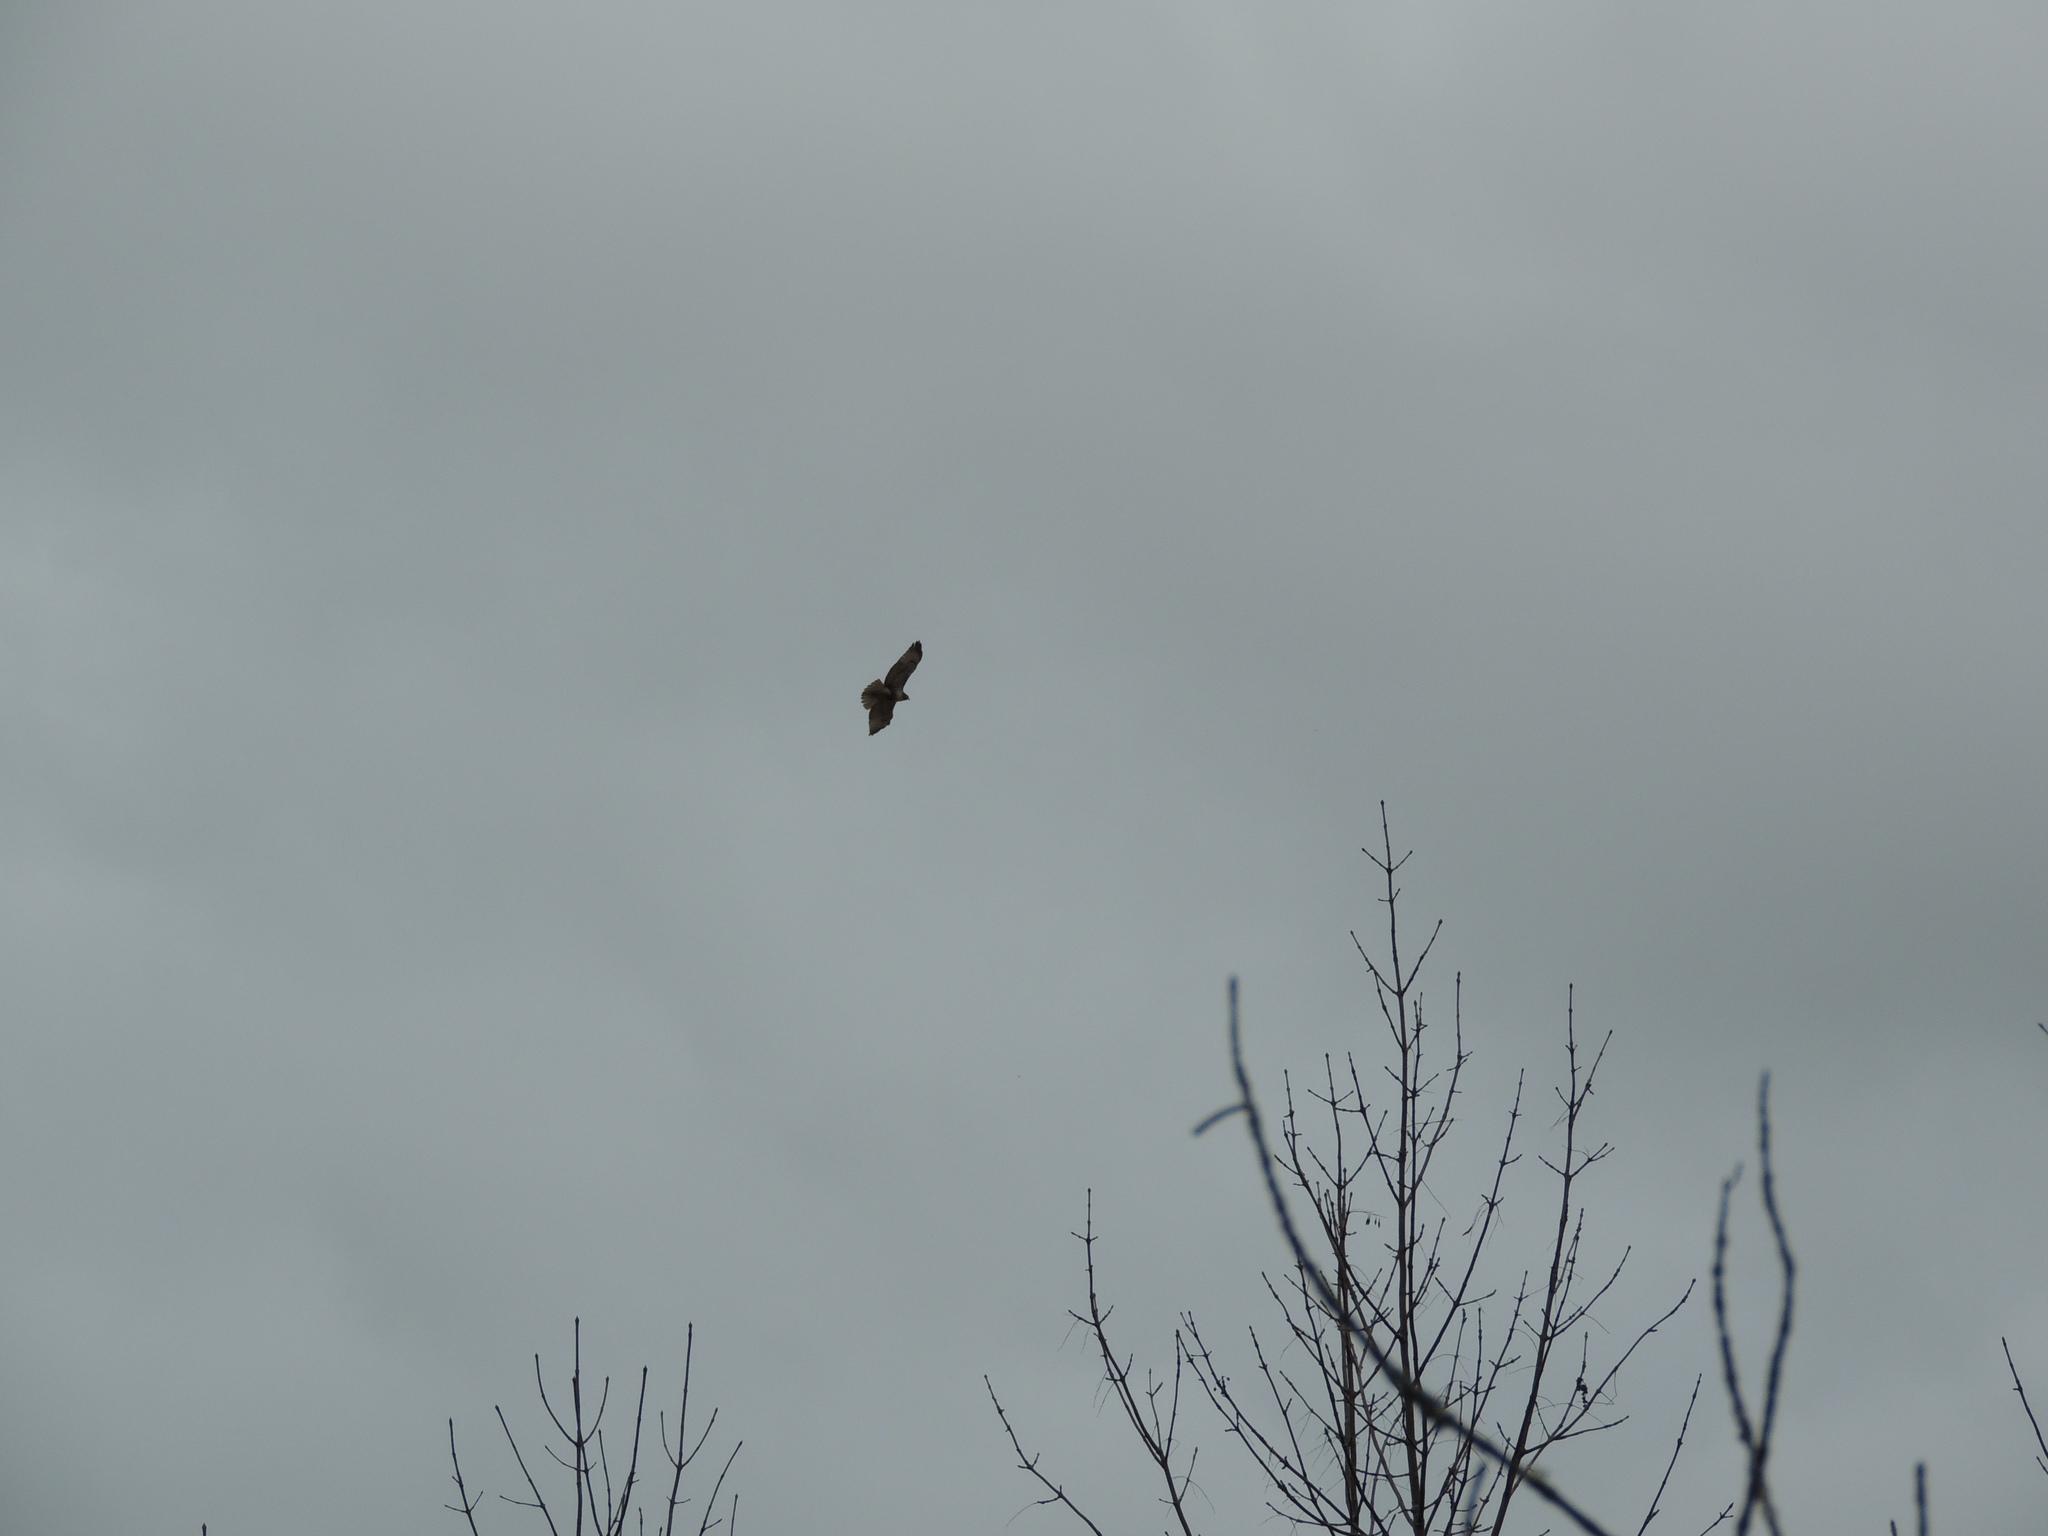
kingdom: Animalia
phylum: Chordata
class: Aves
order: Accipitriformes
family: Accipitridae
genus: Buteo
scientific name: Buteo jamaicensis
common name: Red-tailed hawk
